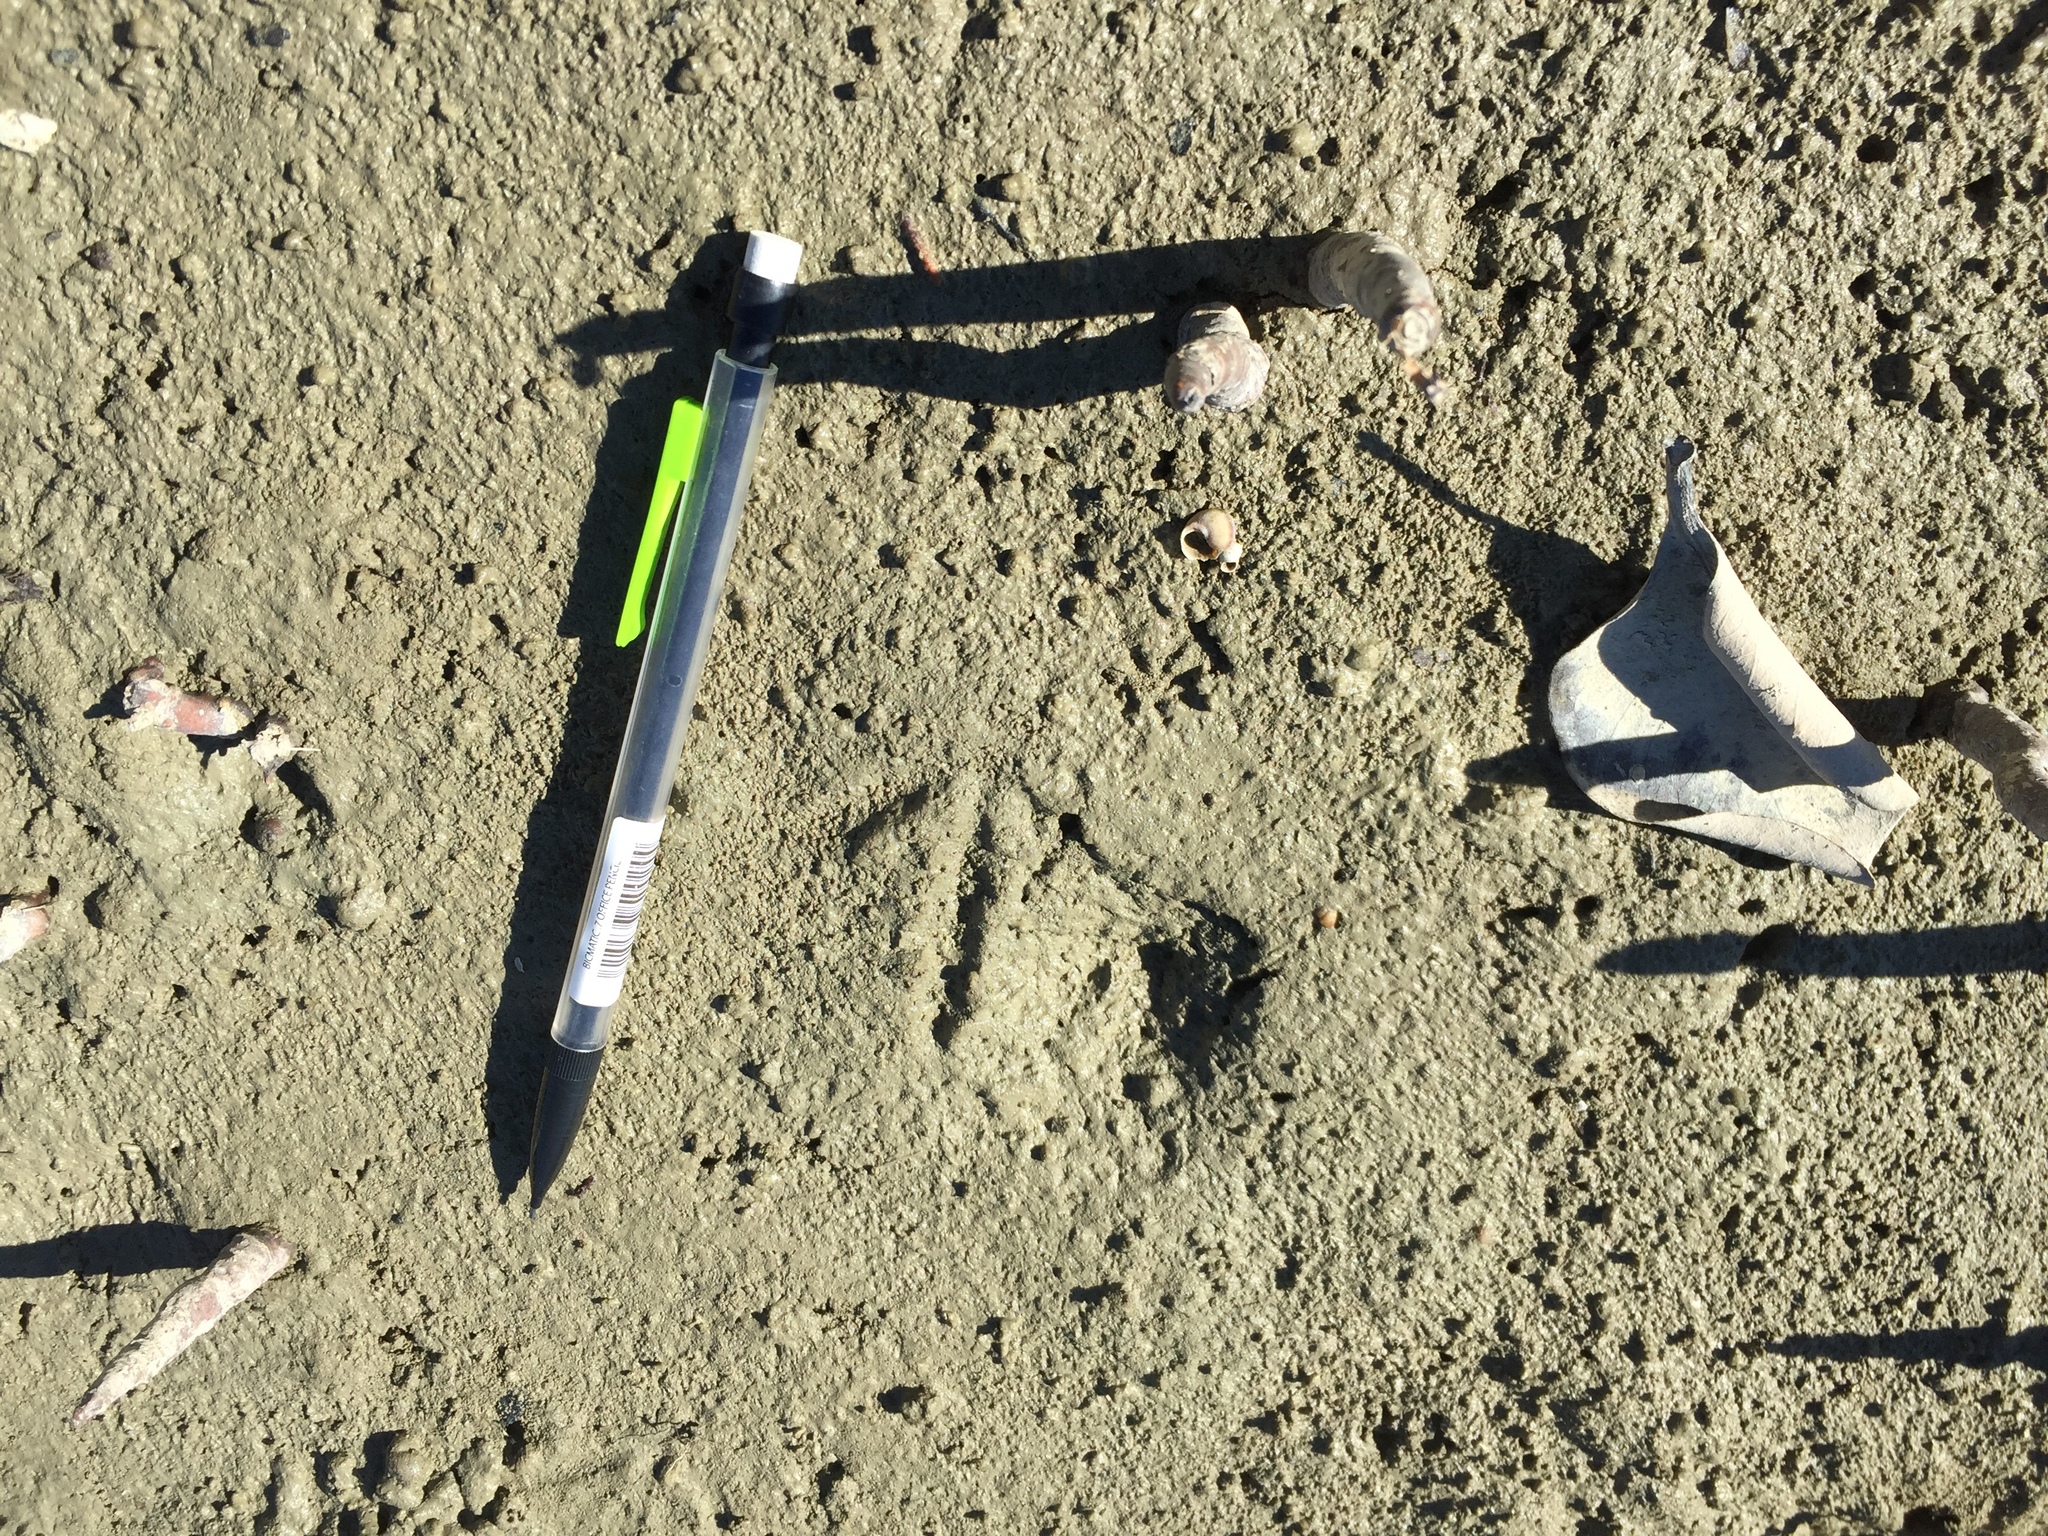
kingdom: Animalia
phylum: Chordata
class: Aves
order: Gruiformes
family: Rallidae
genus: Gallirallus
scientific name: Gallirallus philippensis
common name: Buff-banded rail
